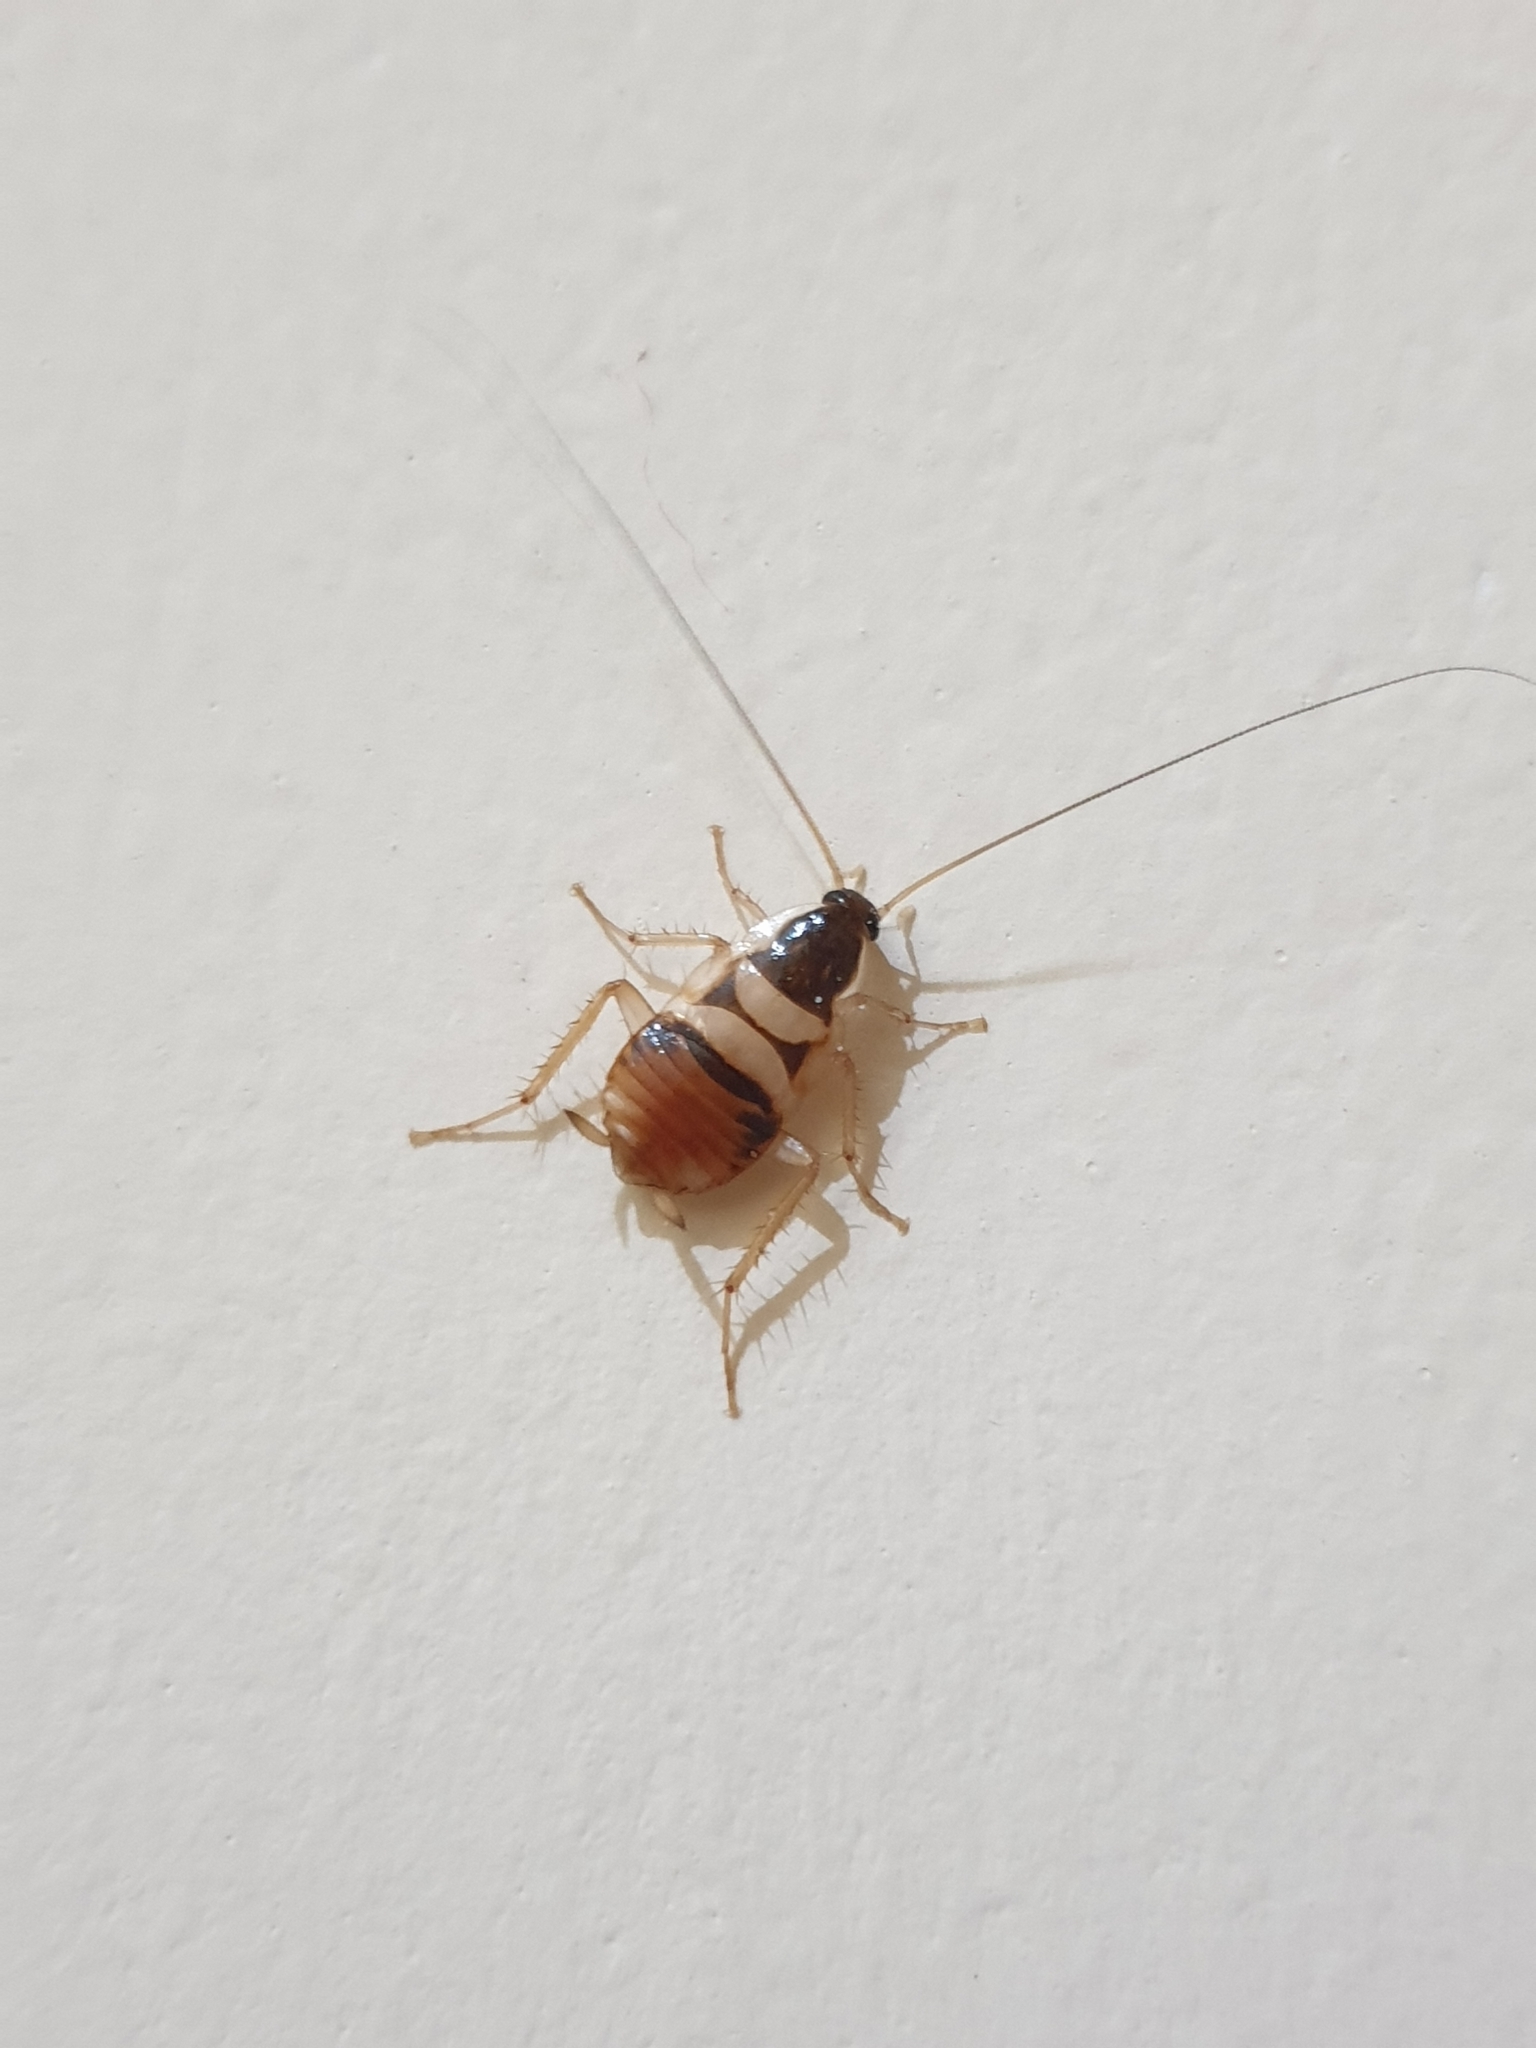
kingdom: Animalia
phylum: Arthropoda
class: Insecta
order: Blattodea
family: Ectobiidae
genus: Supella
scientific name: Supella longipalpa
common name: Brown-banded cockroach
